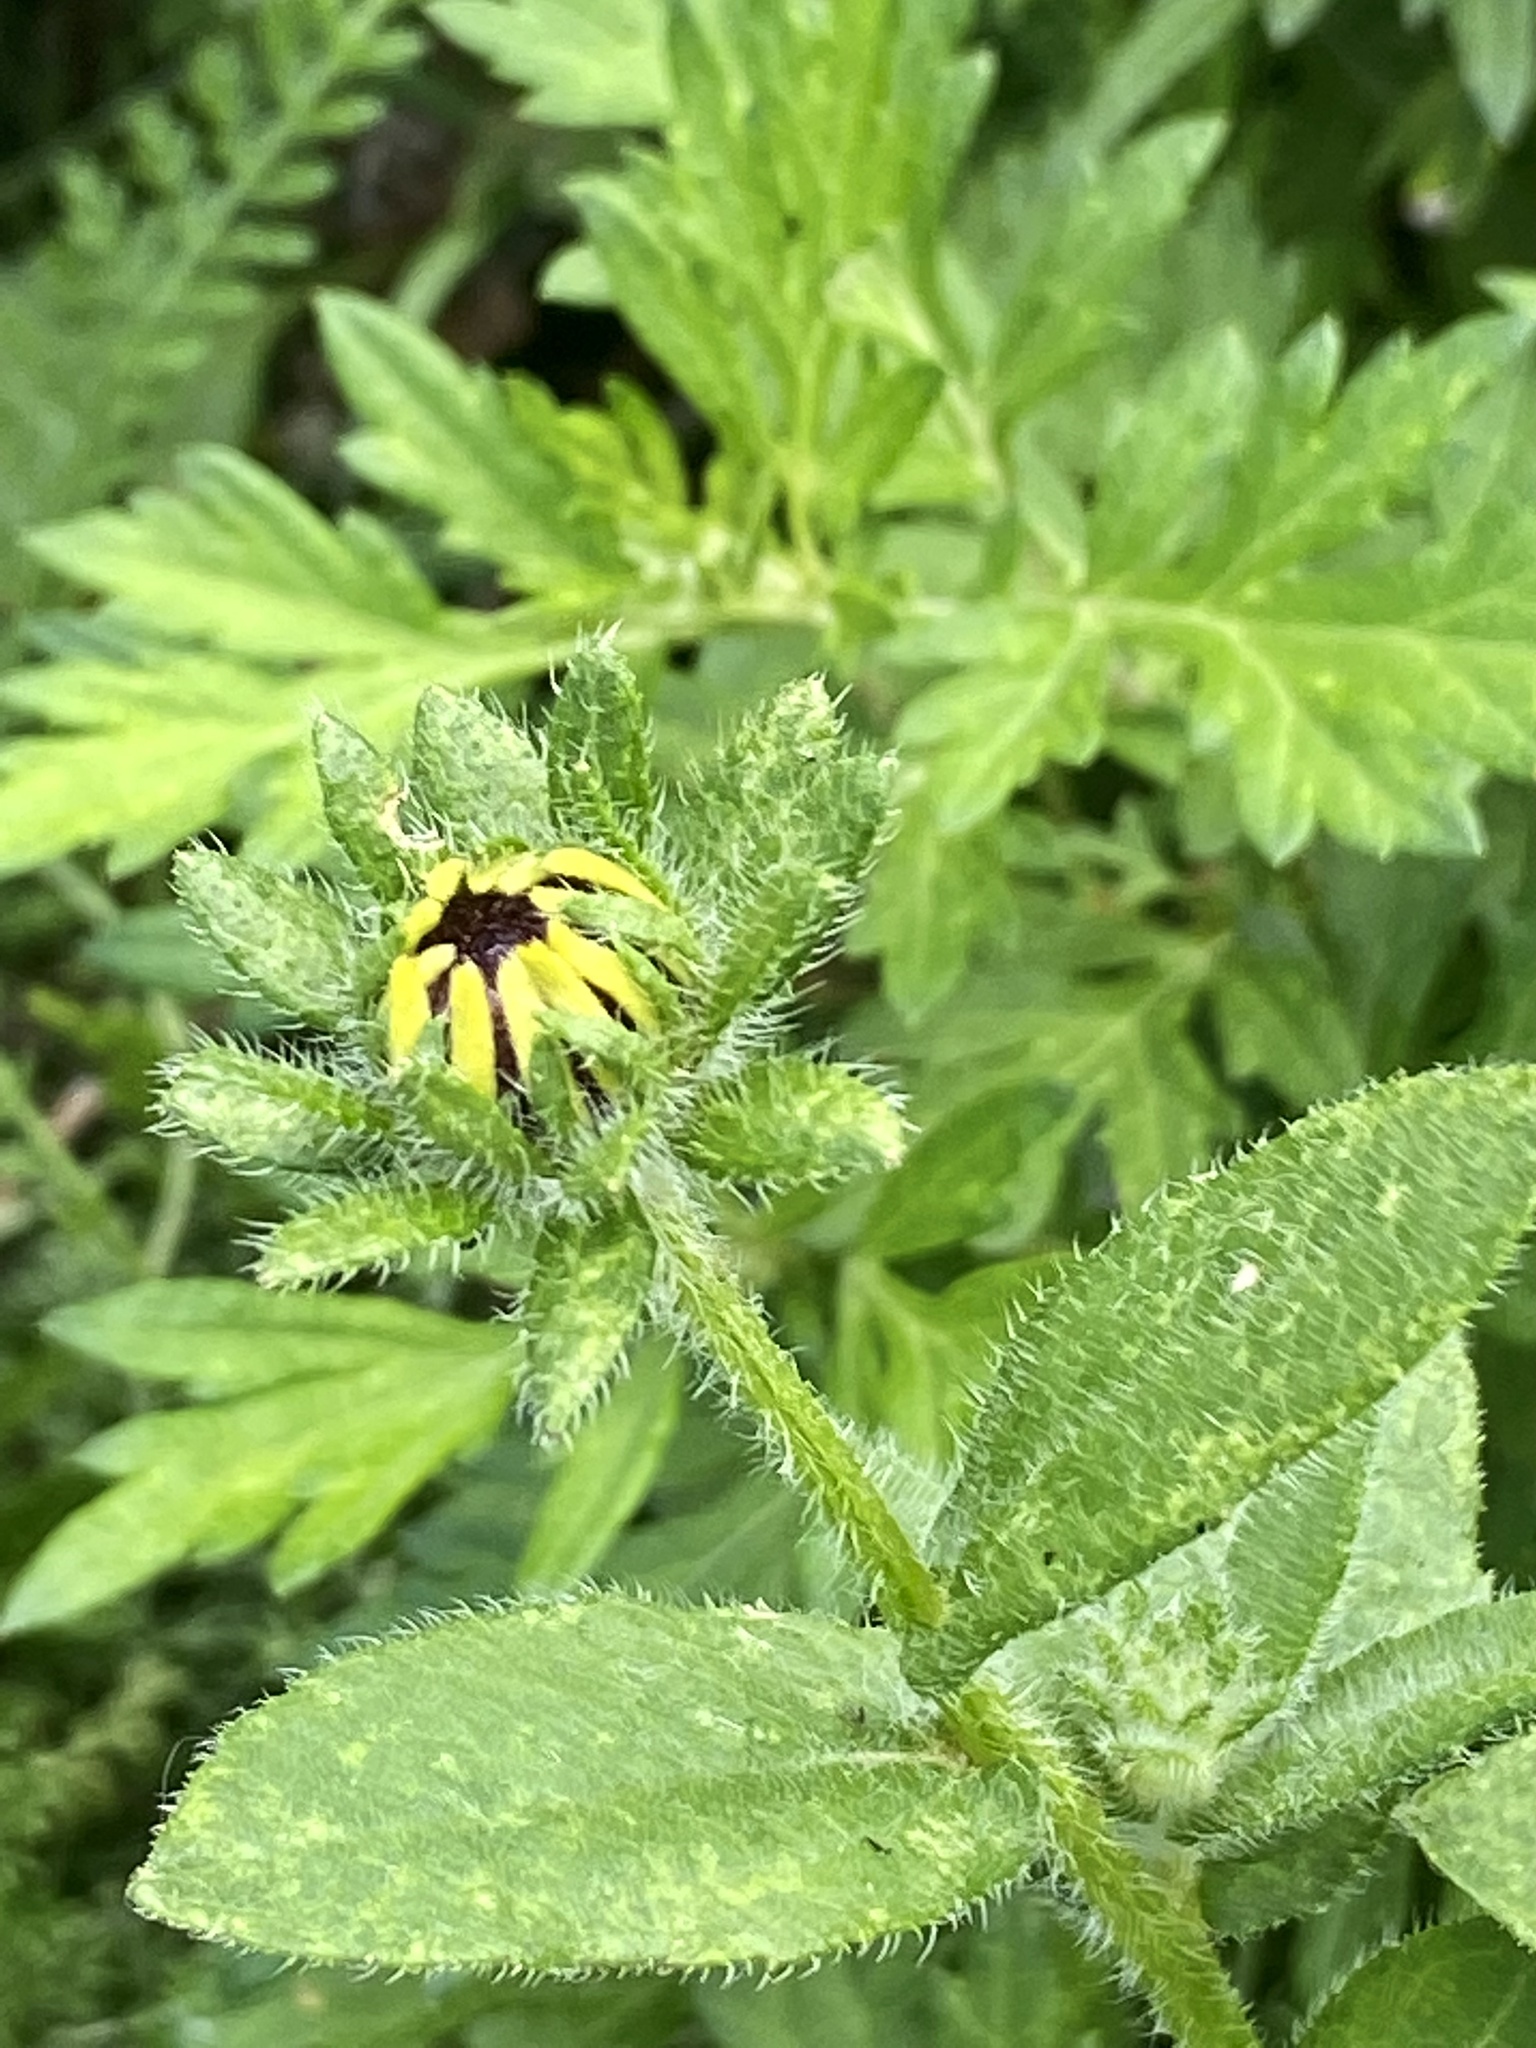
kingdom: Plantae
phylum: Tracheophyta
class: Magnoliopsida
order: Asterales
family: Asteraceae
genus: Rudbeckia
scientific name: Rudbeckia hirta
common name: Black-eyed-susan
